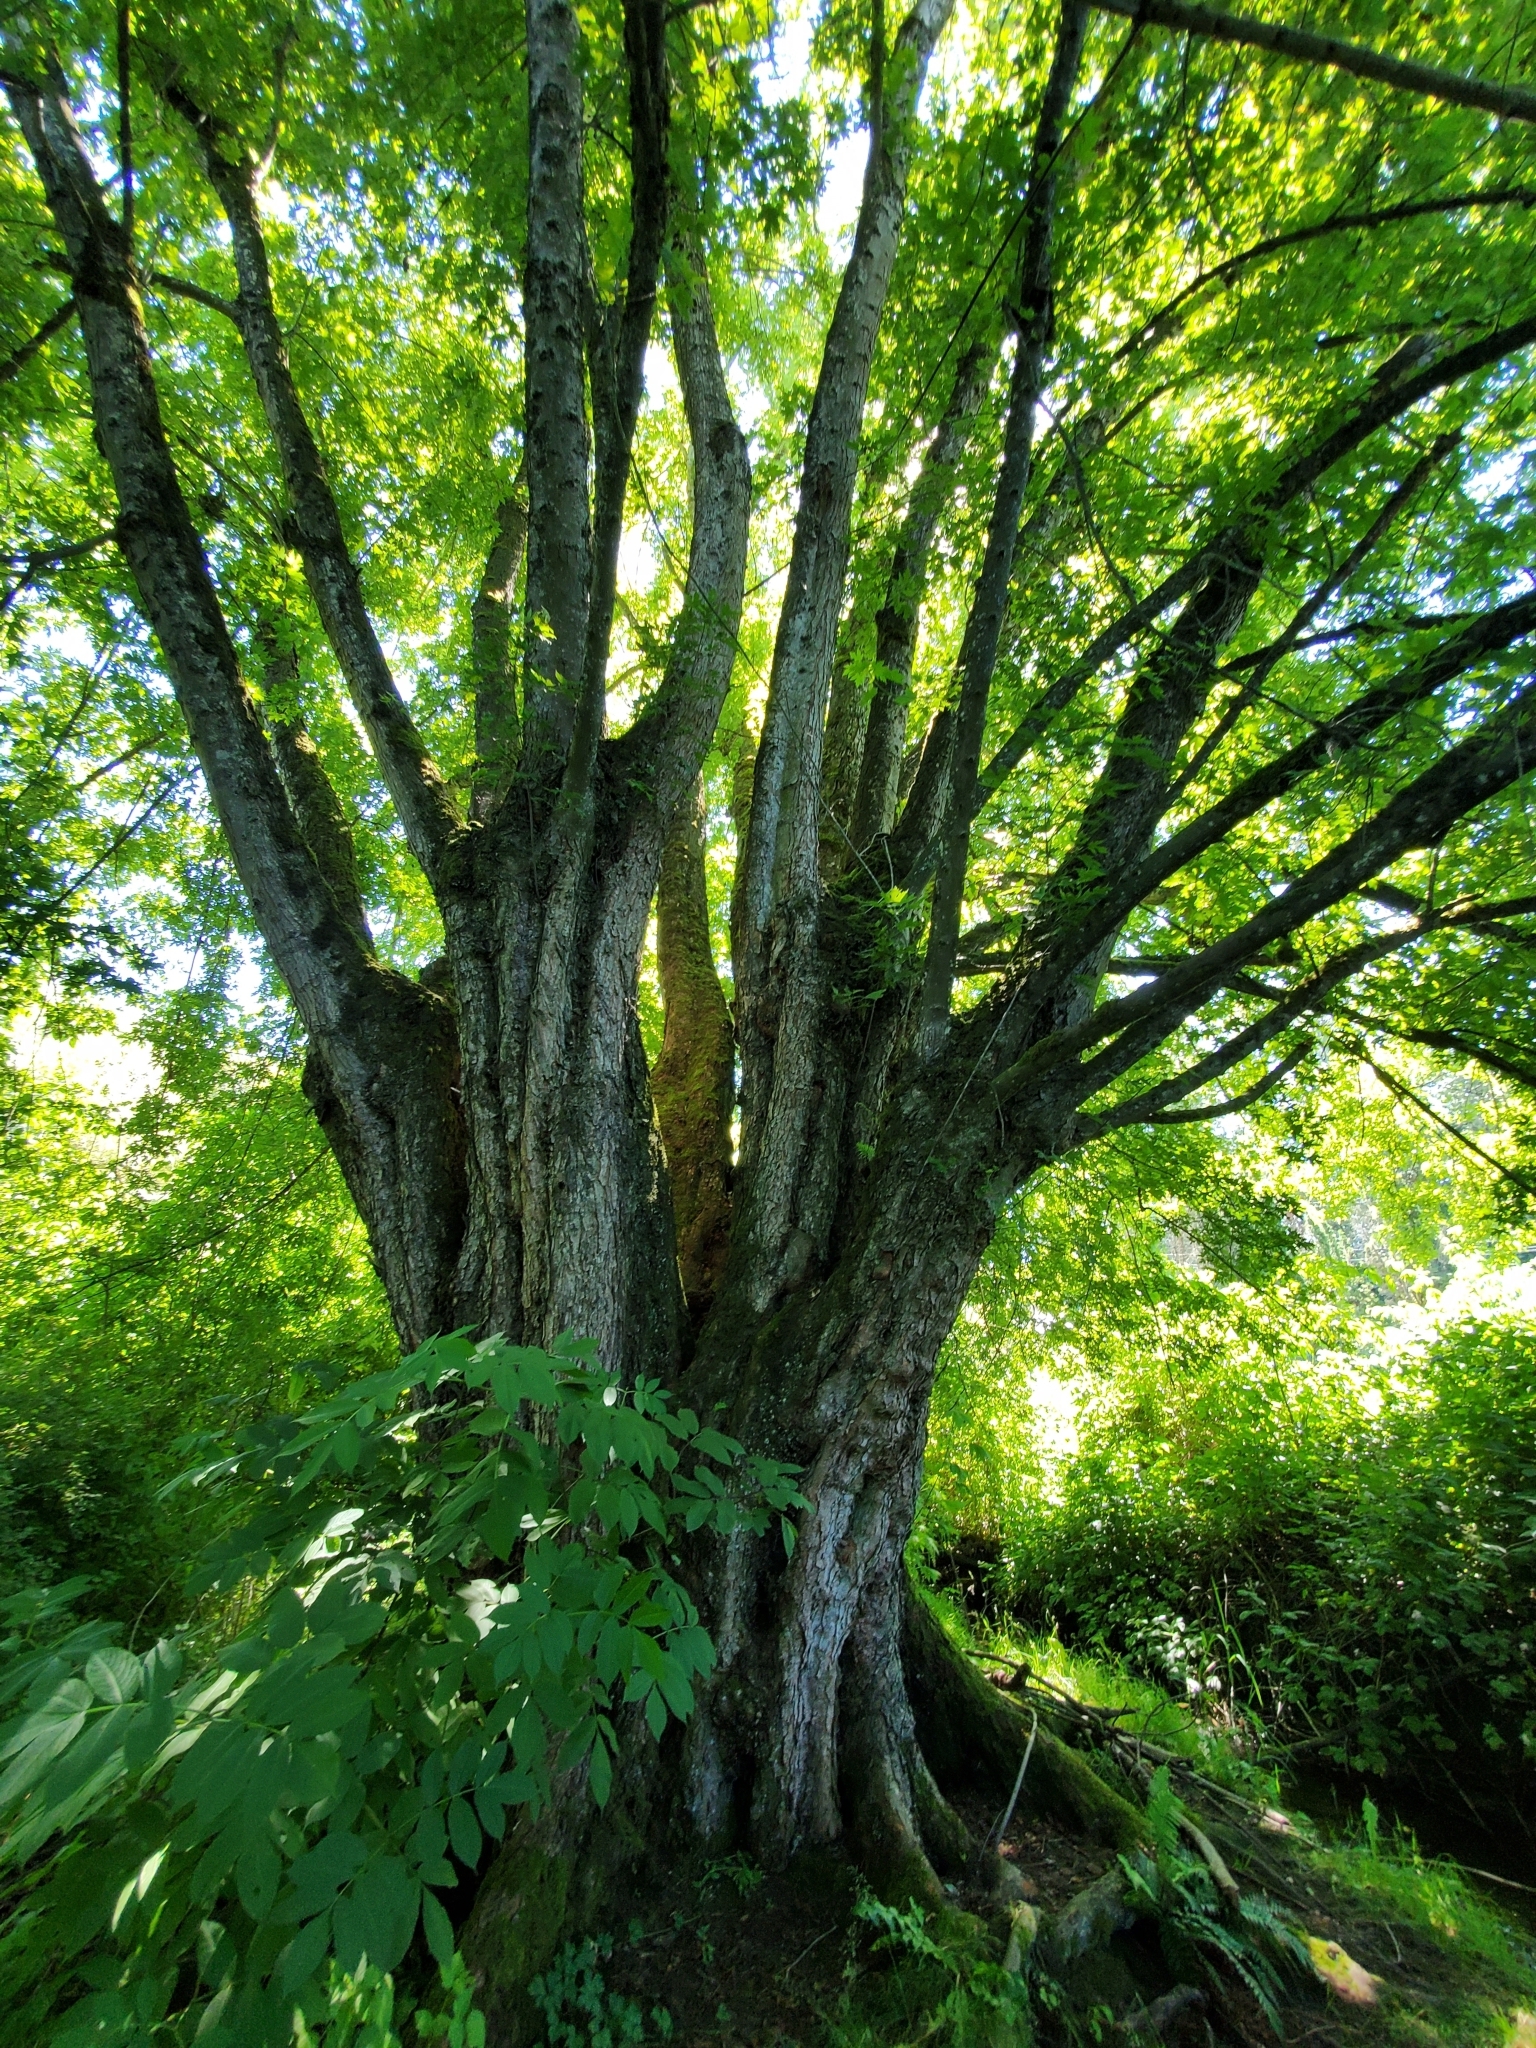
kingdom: Plantae
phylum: Tracheophyta
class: Magnoliopsida
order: Sapindales
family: Sapindaceae
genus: Acer
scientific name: Acer saccharinum
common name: Silver maple
